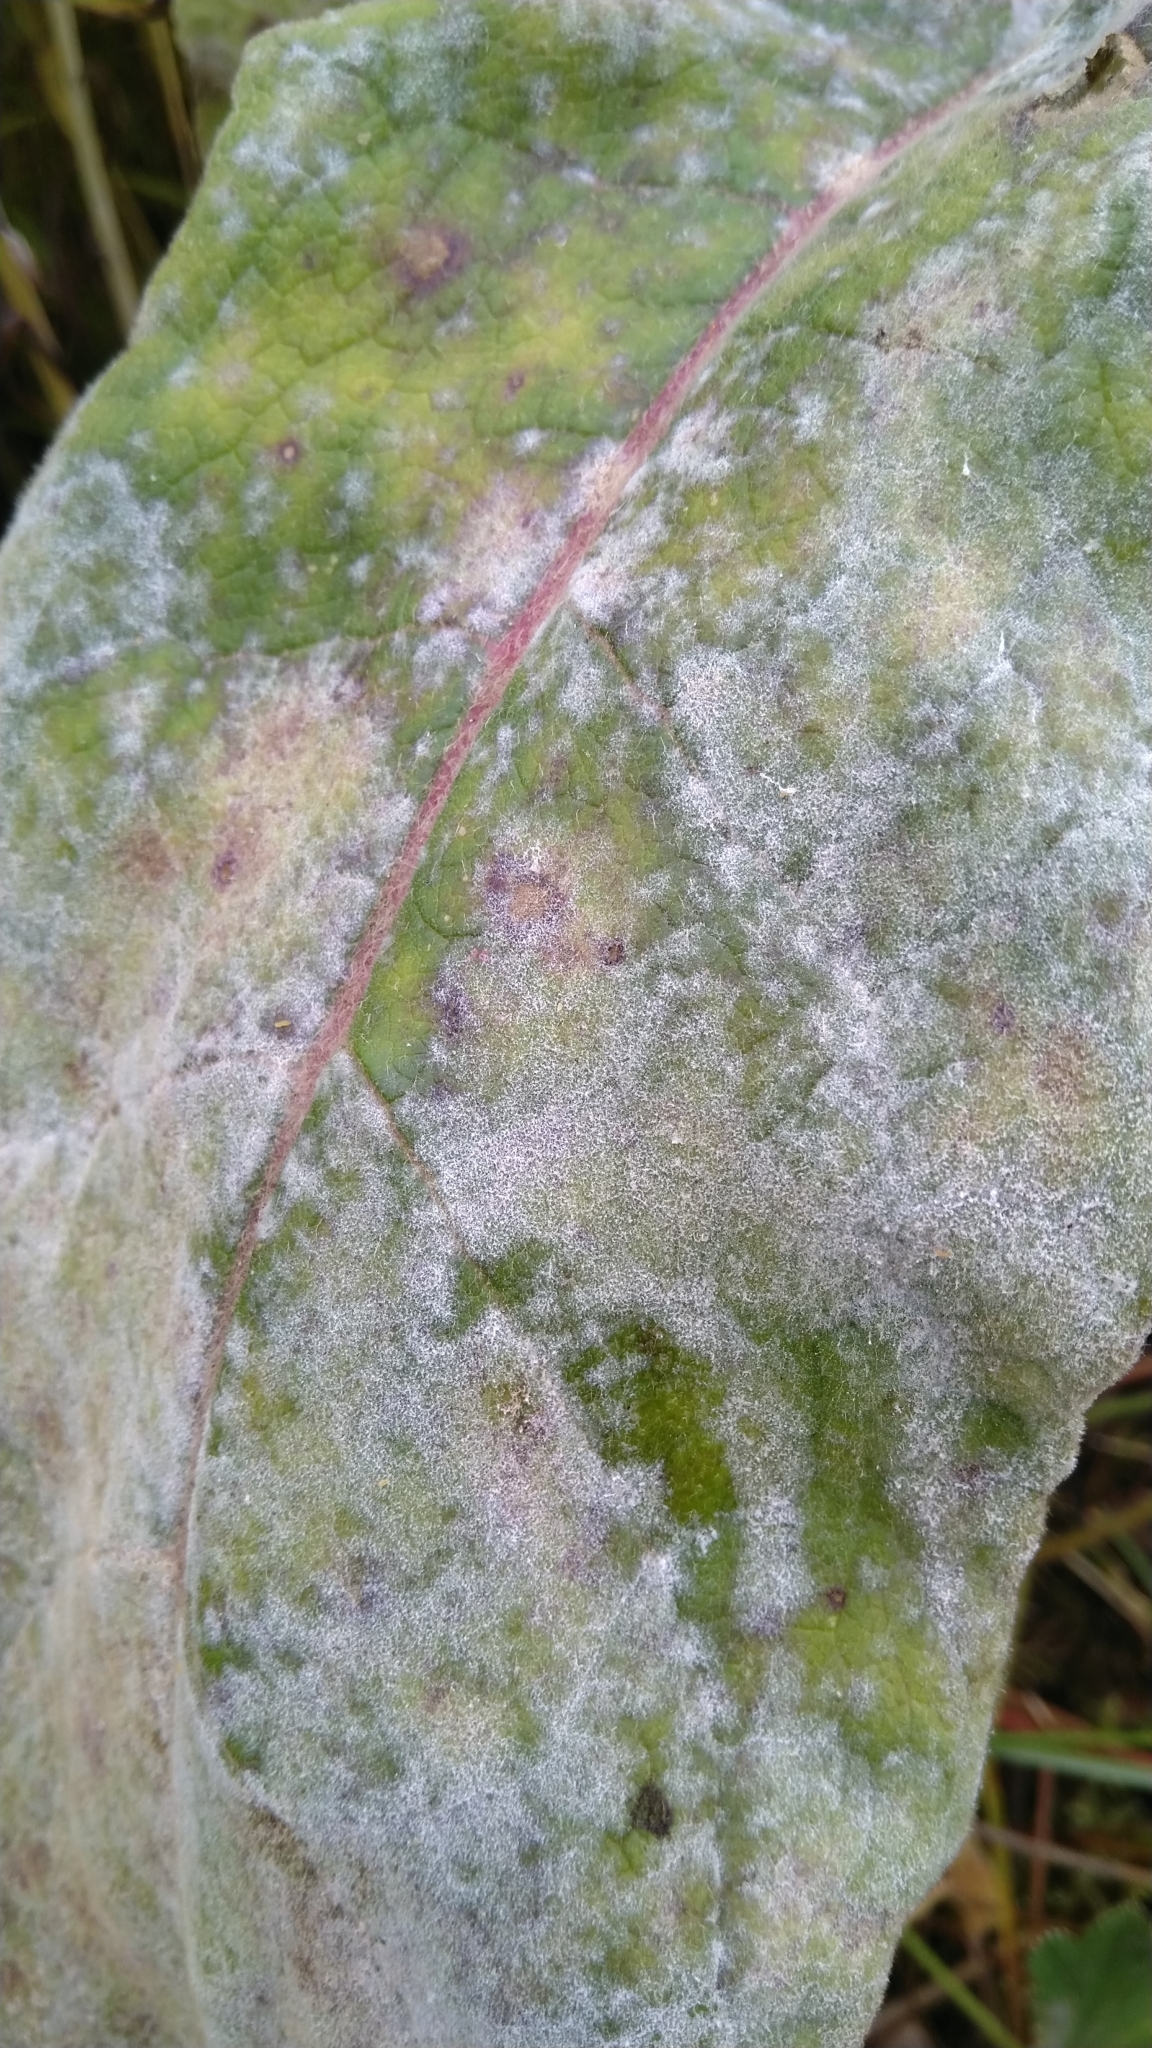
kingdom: Fungi
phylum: Ascomycota
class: Leotiomycetes
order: Helotiales
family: Erysiphaceae
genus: Golovinomyces
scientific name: Golovinomyces verbasci
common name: Powdery mildew
